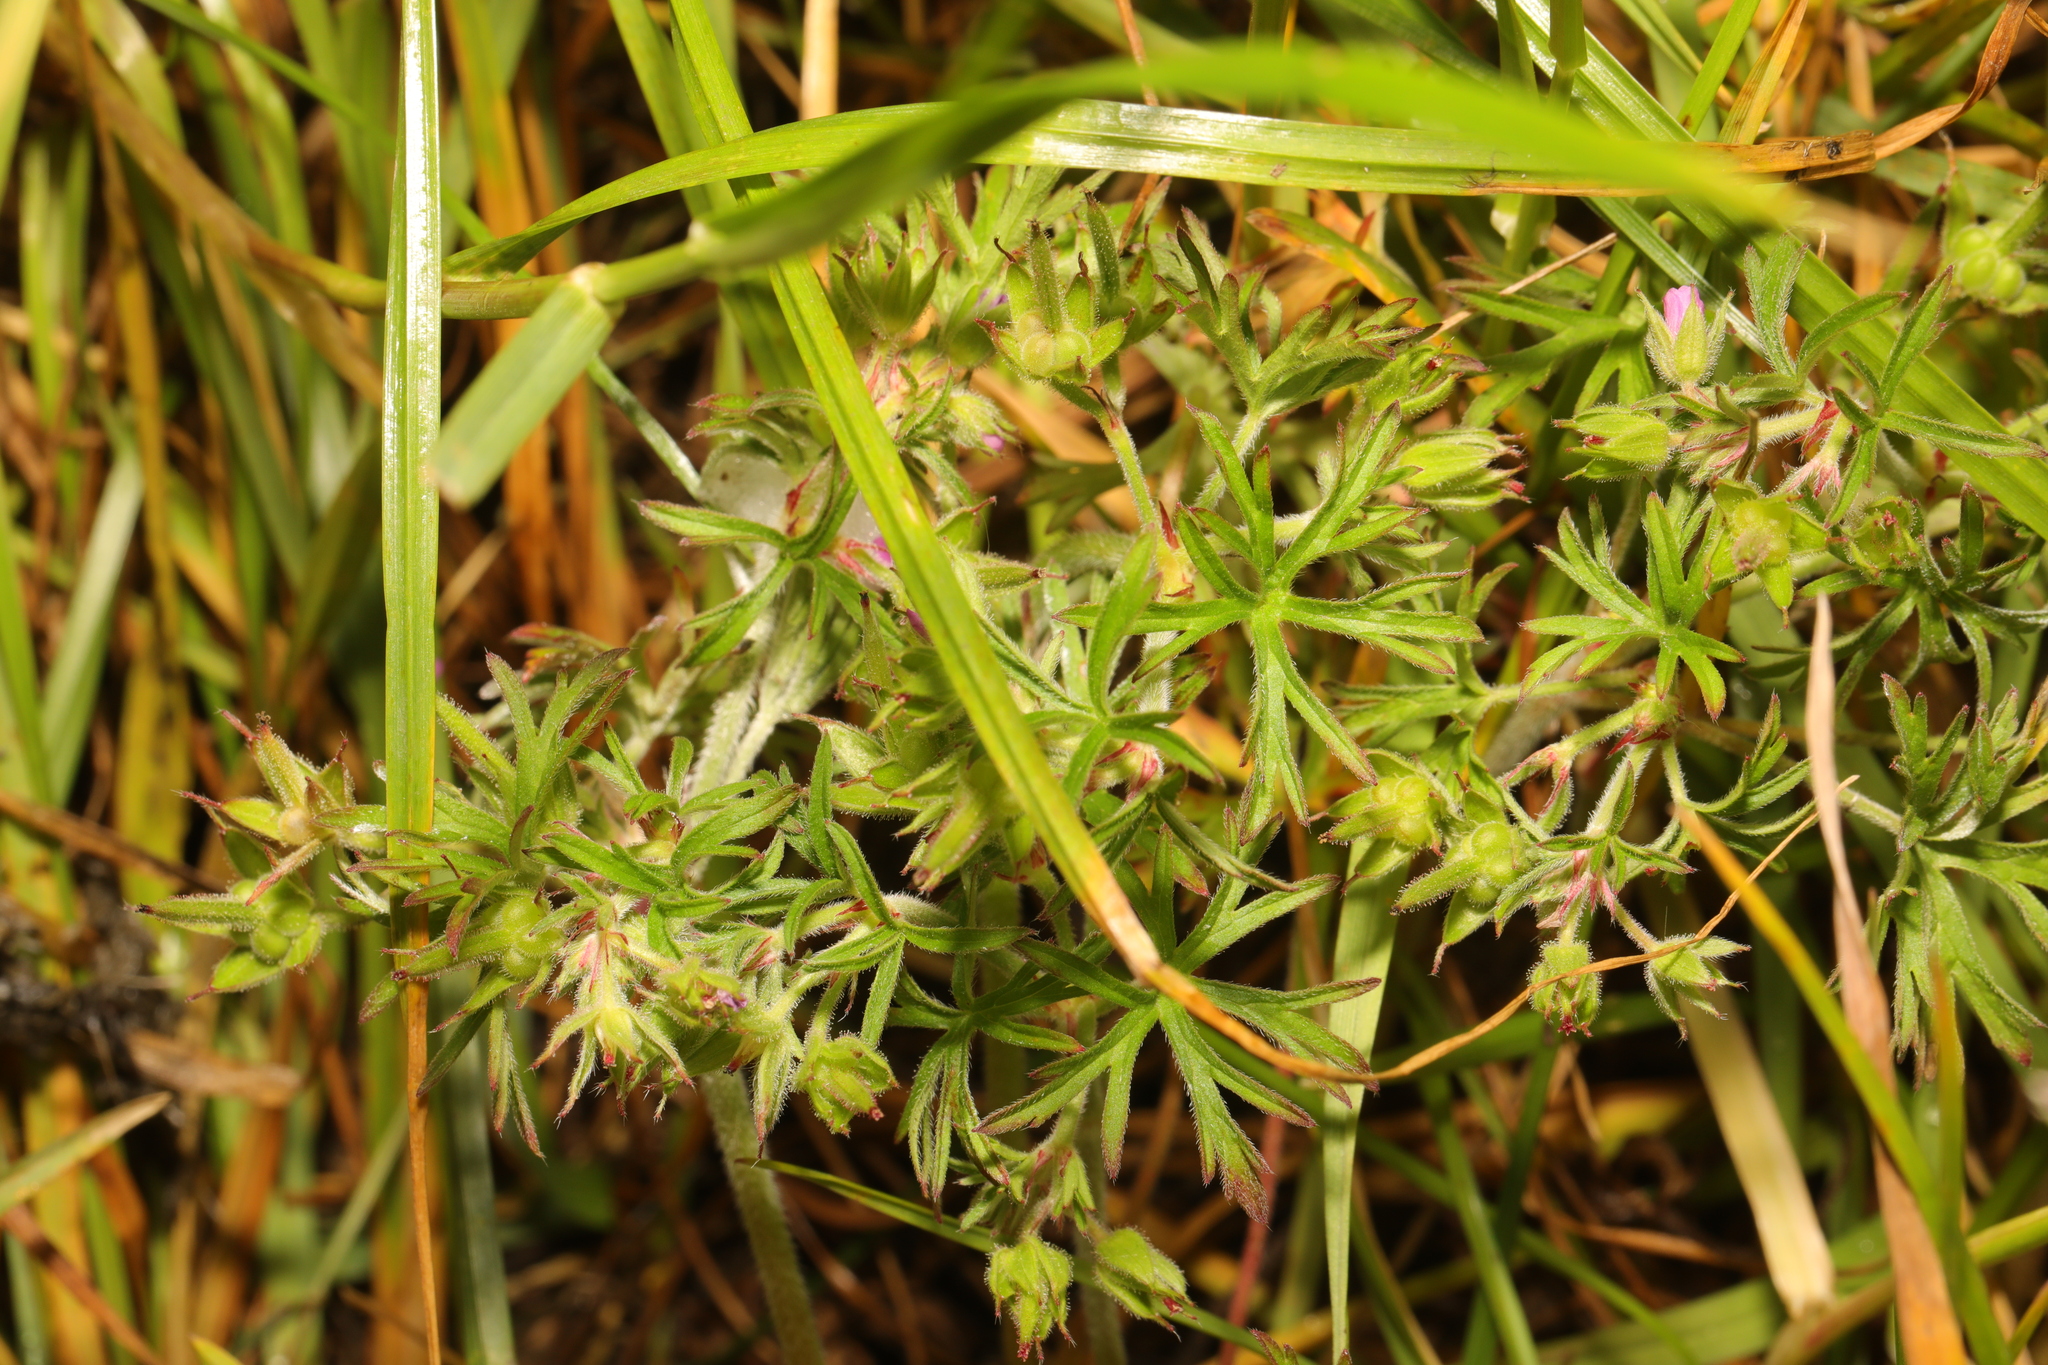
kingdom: Plantae
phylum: Tracheophyta
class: Magnoliopsida
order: Geraniales
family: Geraniaceae
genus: Geranium
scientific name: Geranium dissectum
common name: Cut-leaved crane's-bill
